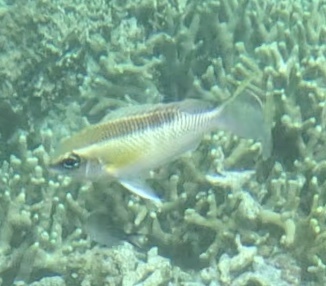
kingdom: Animalia
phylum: Chordata
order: Perciformes
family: Nemipteridae
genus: Scolopsis
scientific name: Scolopsis margaritifera
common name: Pearly monocle bream
